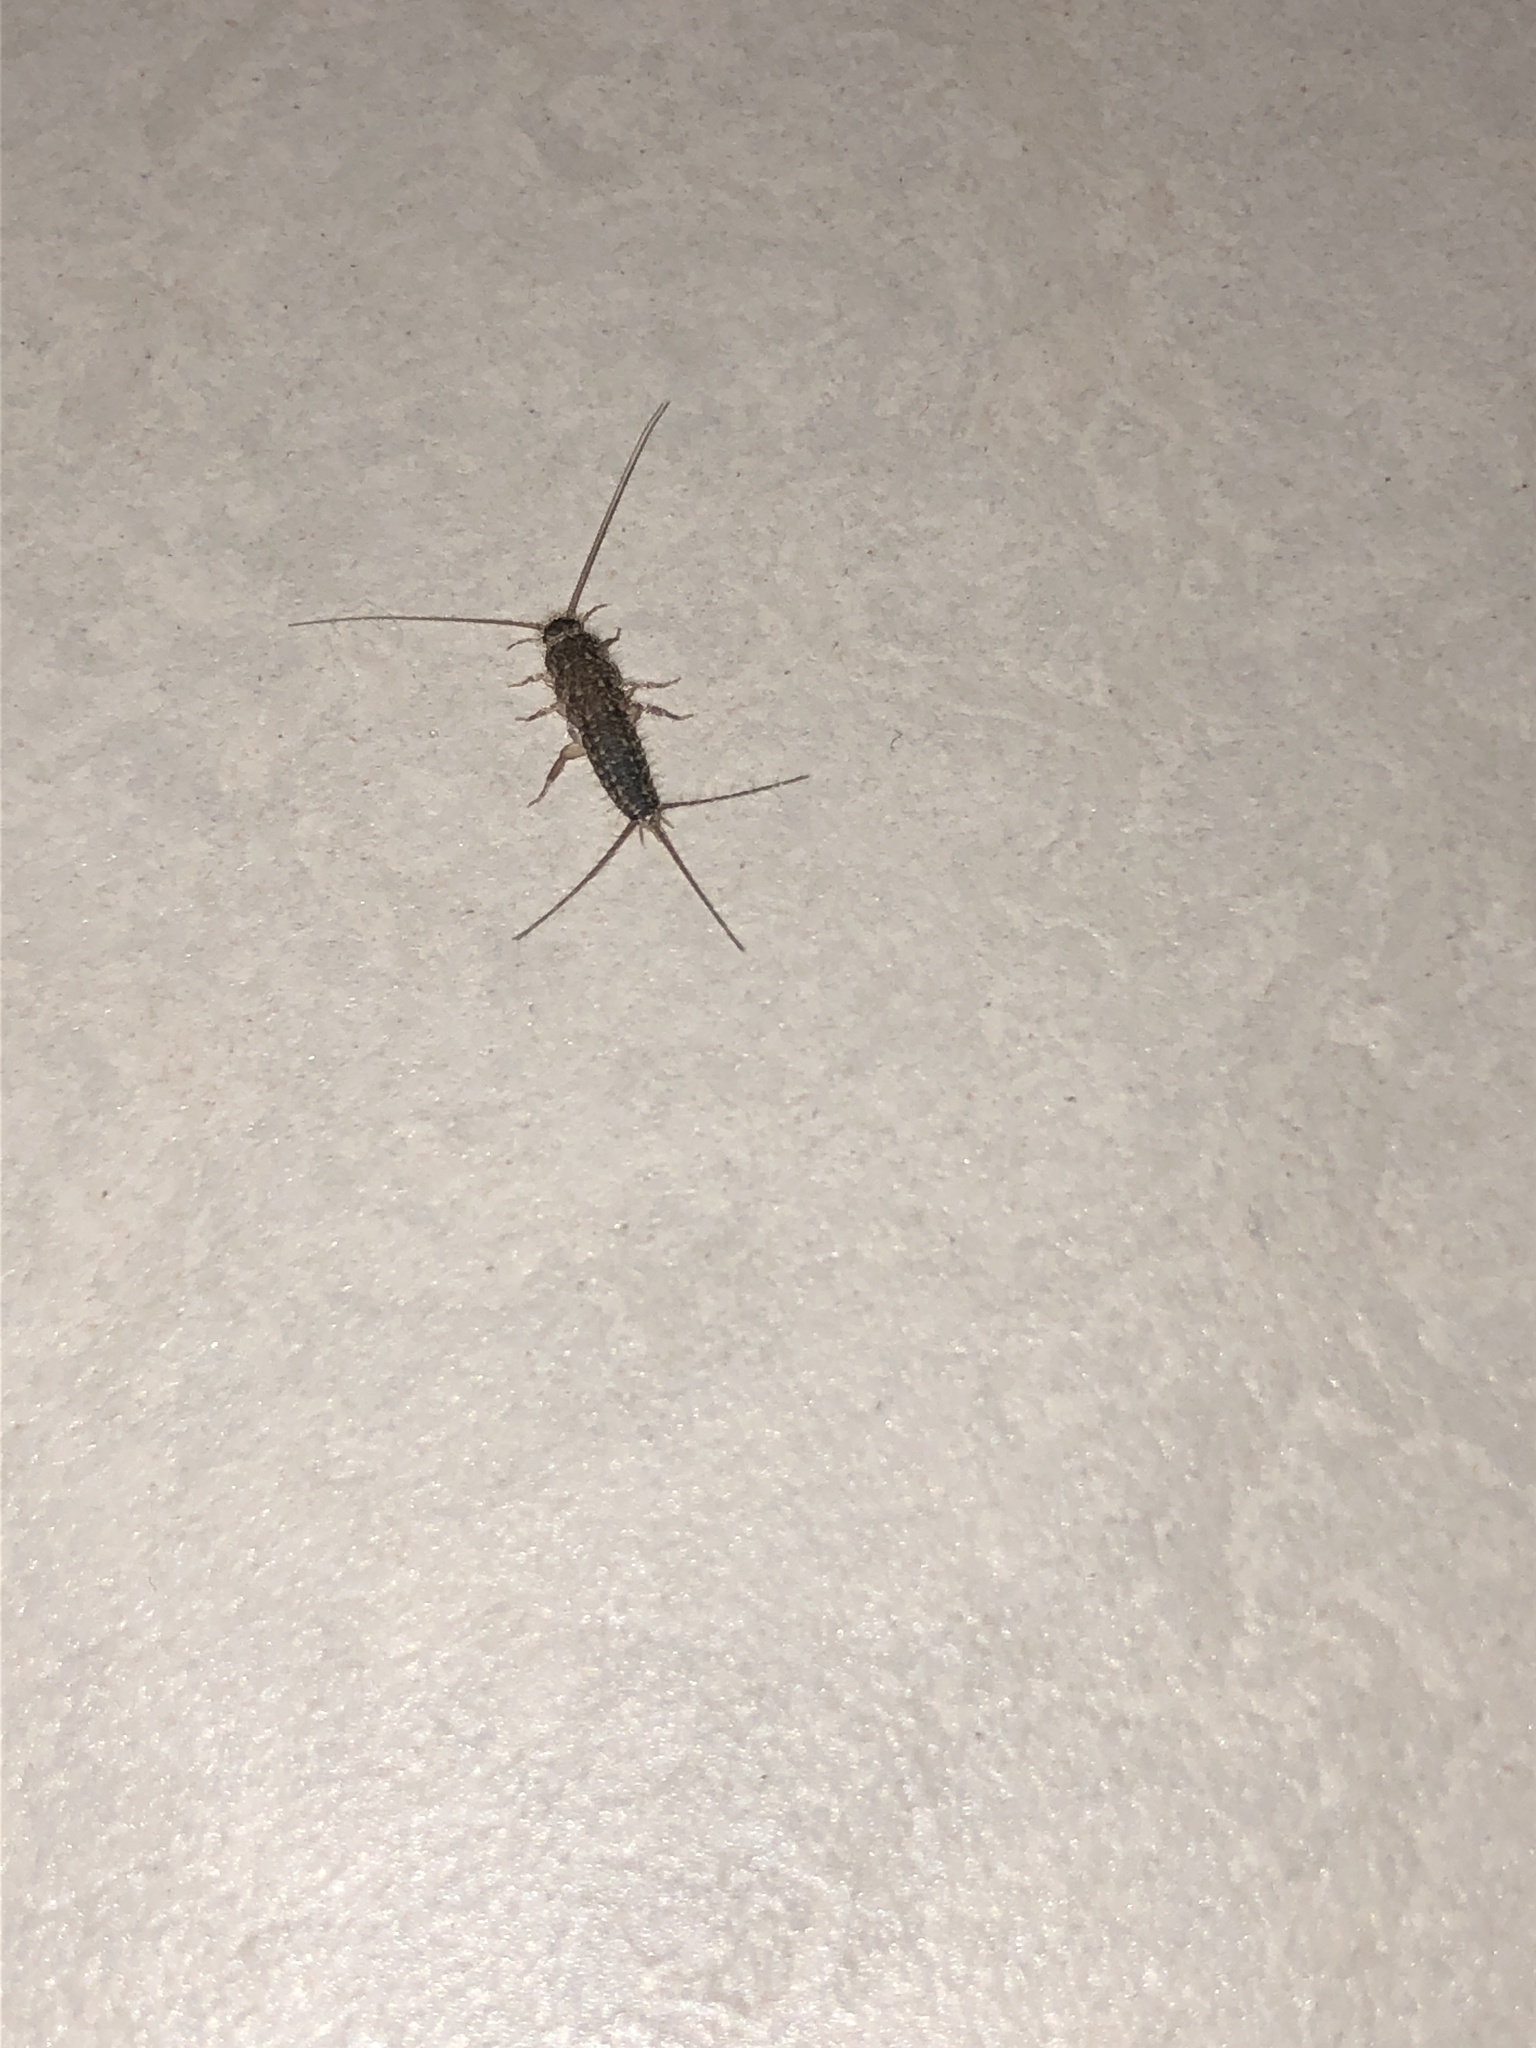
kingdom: Animalia
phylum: Arthropoda
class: Insecta
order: Zygentoma
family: Lepismatidae
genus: Ctenolepisma
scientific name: Ctenolepisma lineata
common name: Four-lined silverfish
